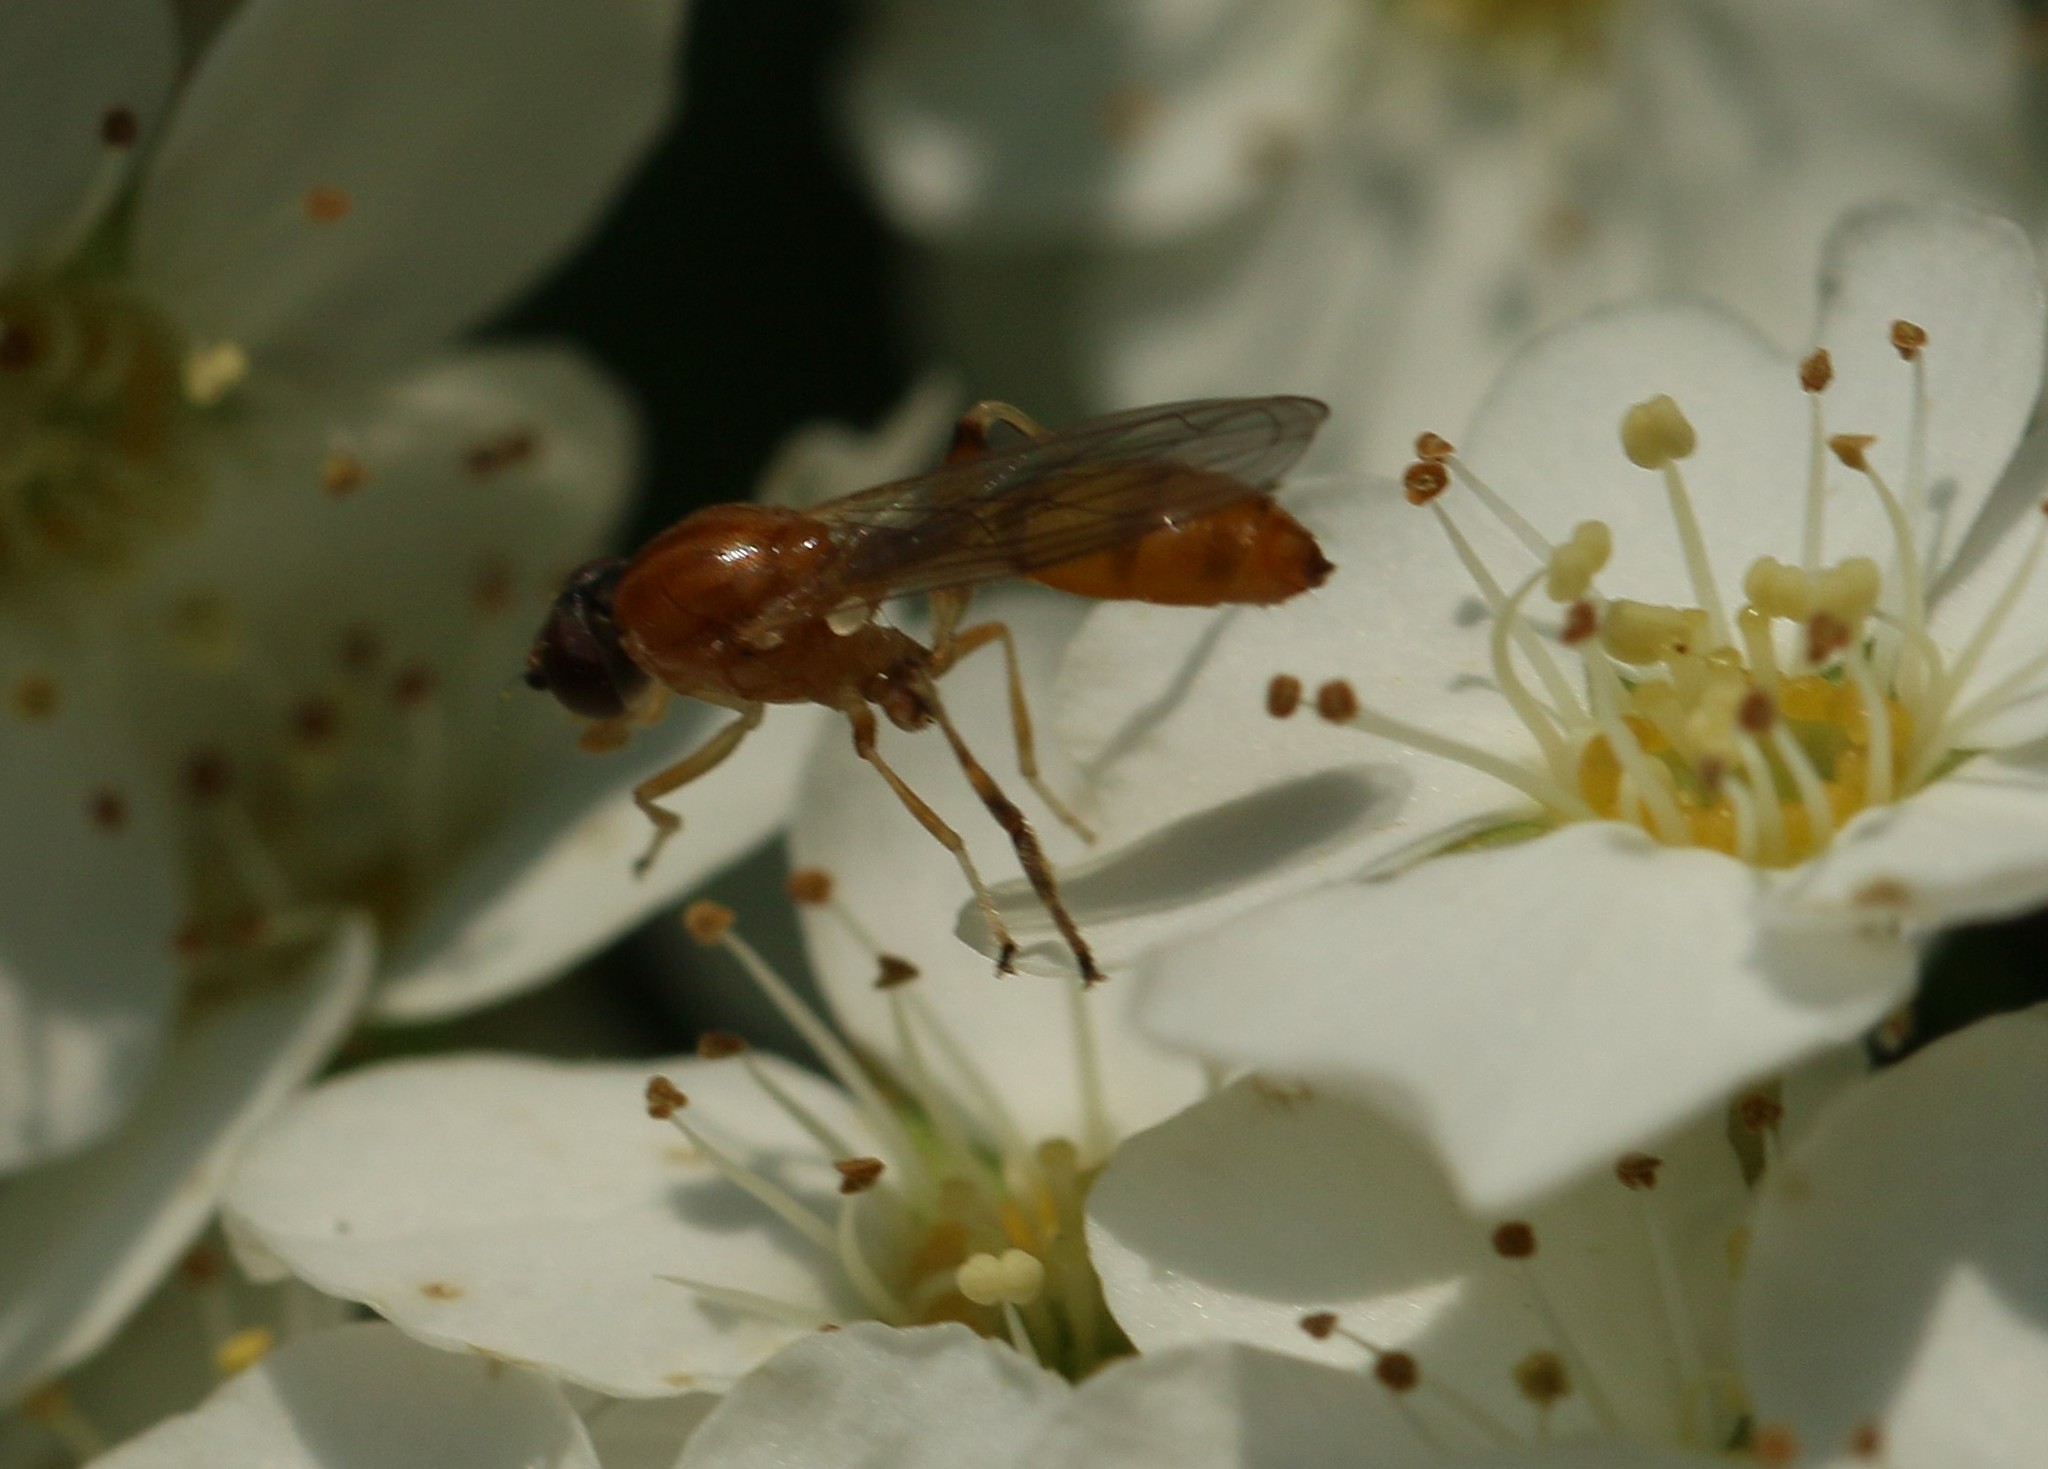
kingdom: Animalia
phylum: Arthropoda
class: Insecta
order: Diptera
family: Syrphidae
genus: Sphegina
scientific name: Sphegina rufiventris
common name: Black-horned pufftail
